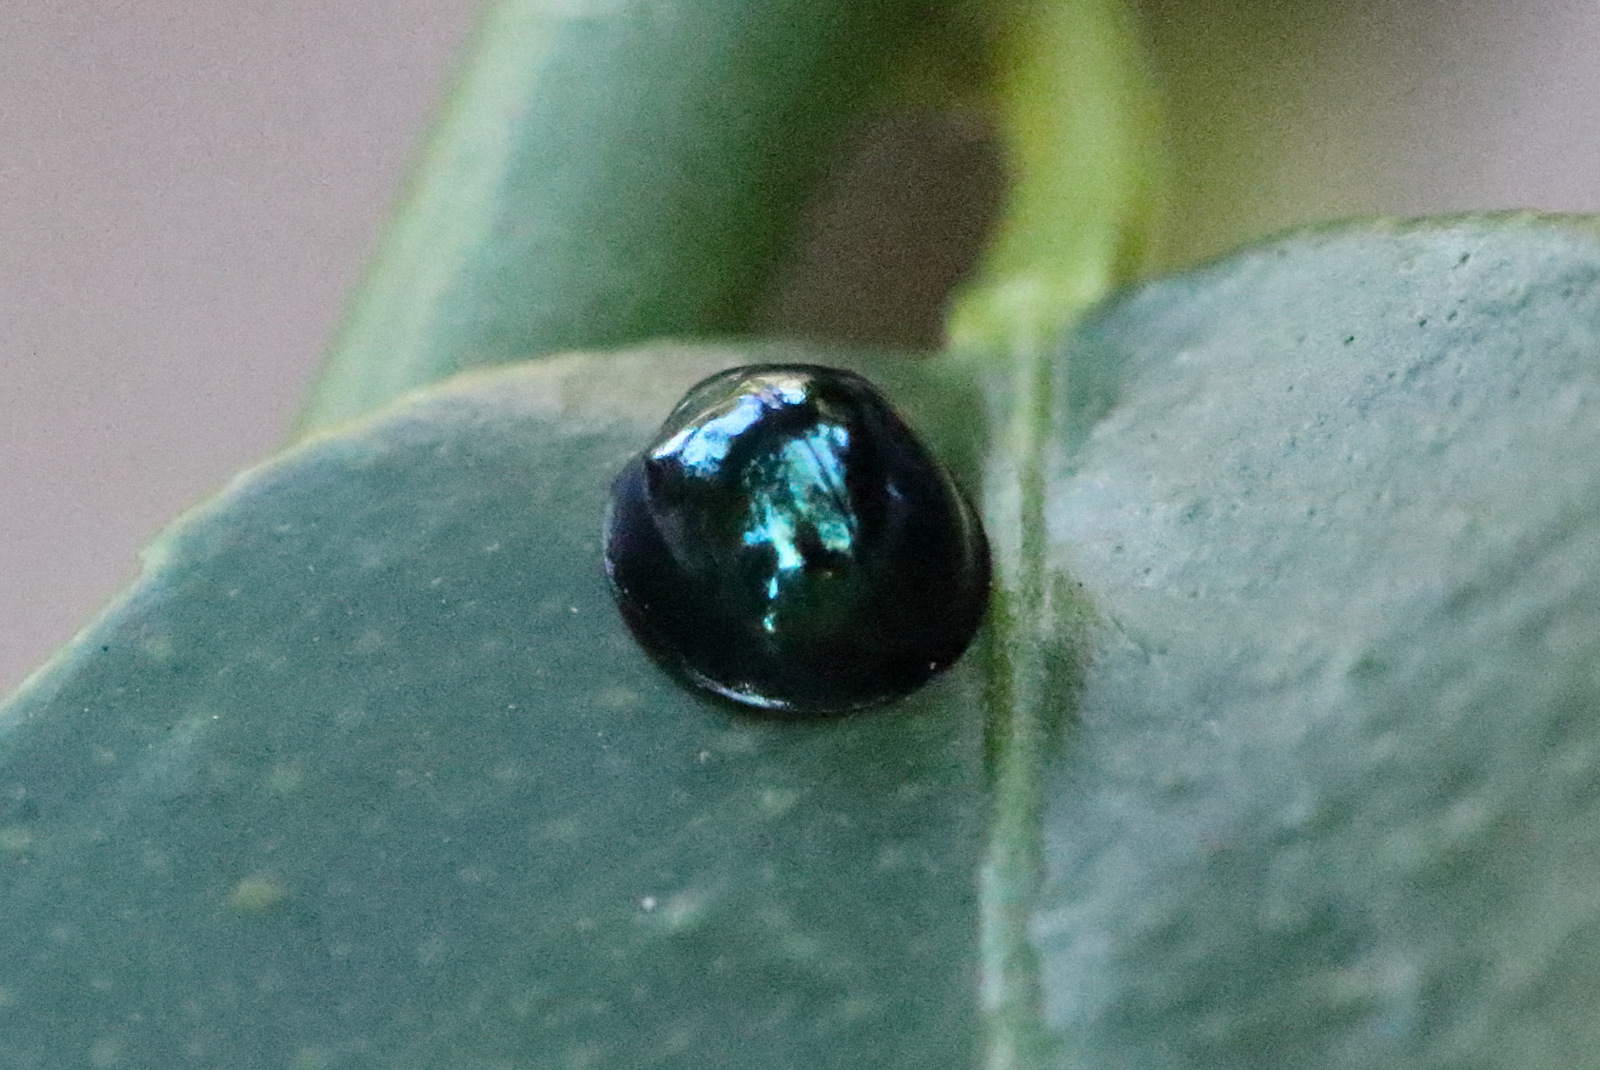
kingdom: Animalia
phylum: Arthropoda
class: Insecta
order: Coleoptera
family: Coccinellidae
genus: Halmus
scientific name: Halmus chalybeus
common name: Steel blue ladybird beetle
